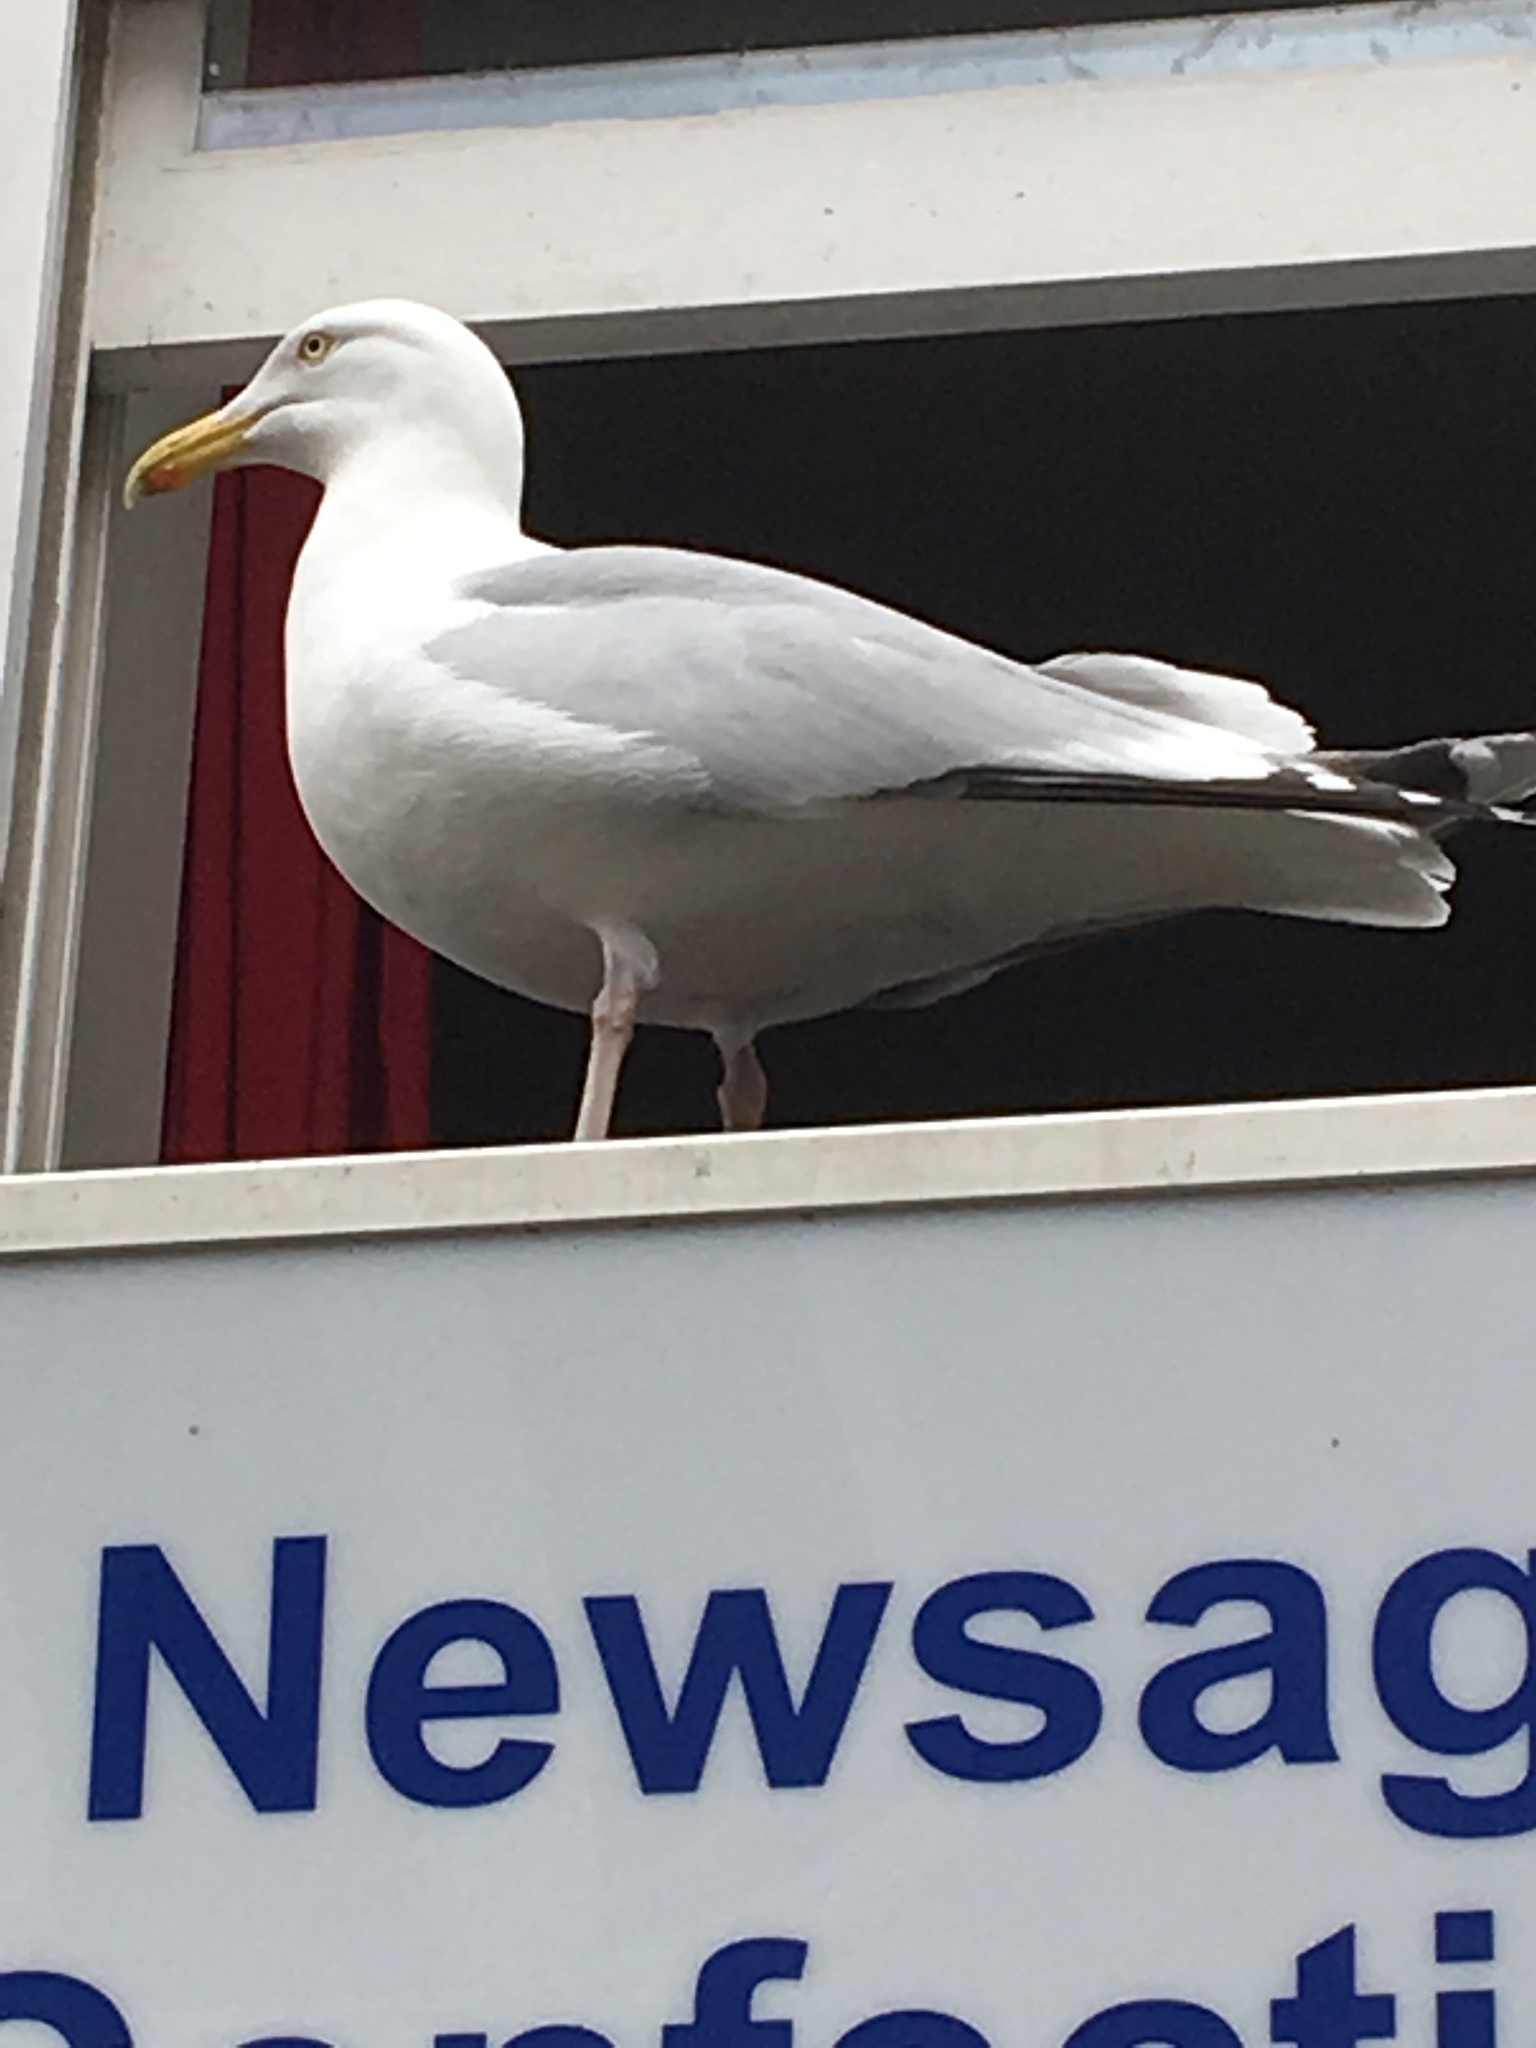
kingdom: Animalia
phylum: Chordata
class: Aves
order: Charadriiformes
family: Laridae
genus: Larus
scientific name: Larus argentatus
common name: Herring gull
